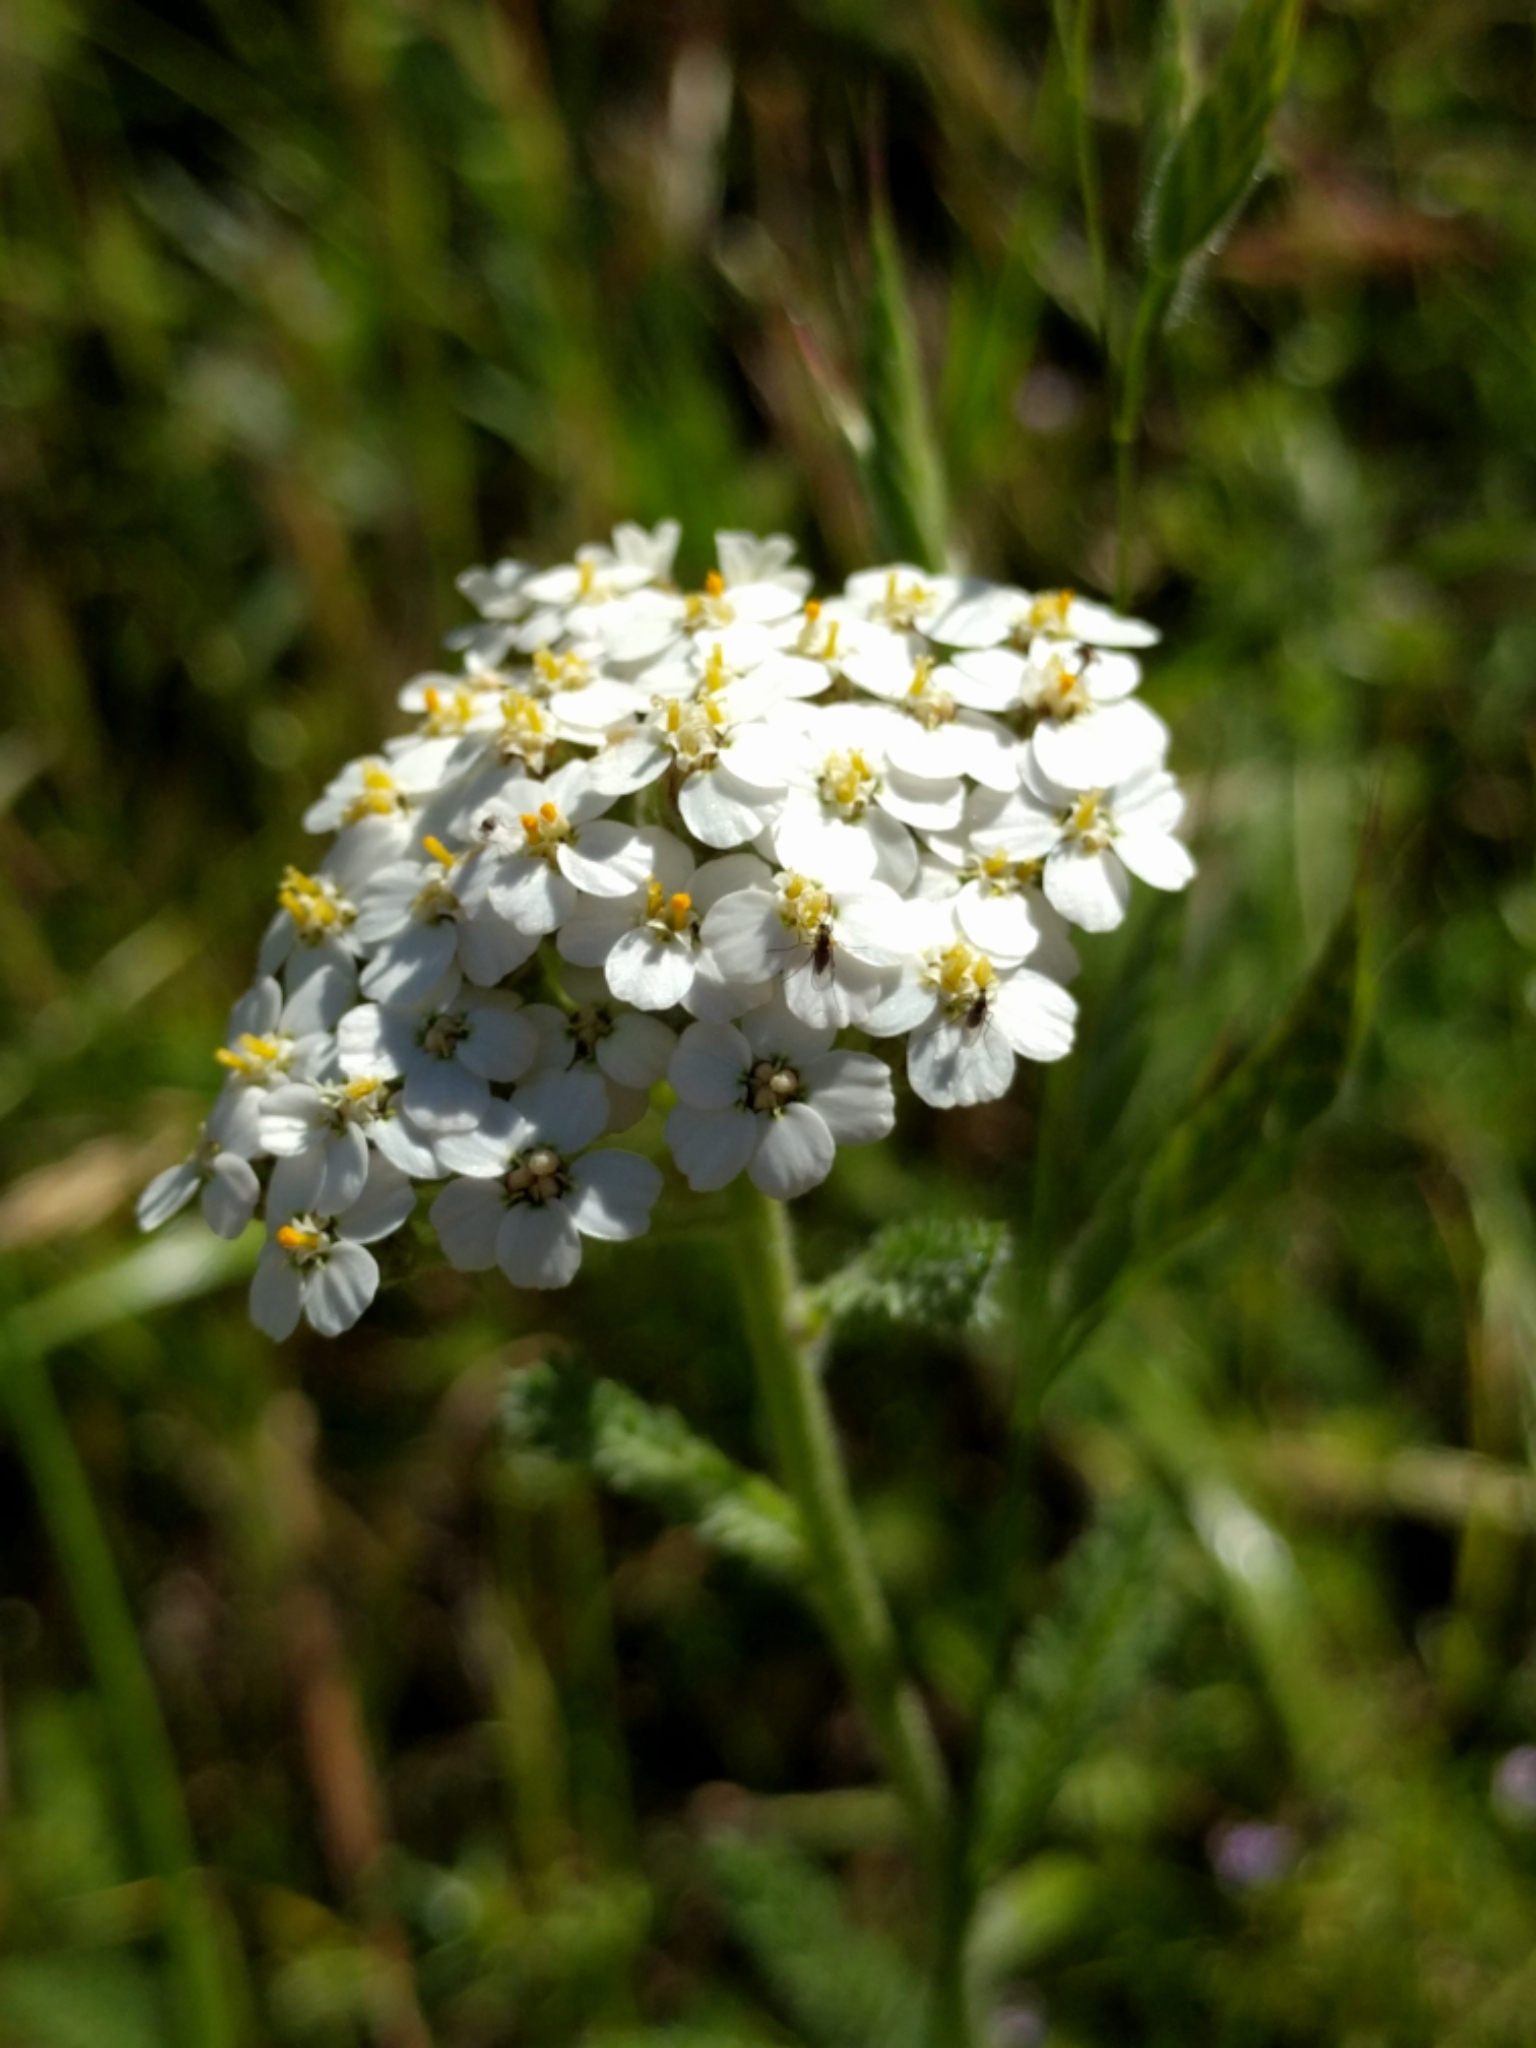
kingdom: Plantae
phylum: Tracheophyta
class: Magnoliopsida
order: Asterales
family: Asteraceae
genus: Achillea
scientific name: Achillea millefolium
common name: Yarrow
